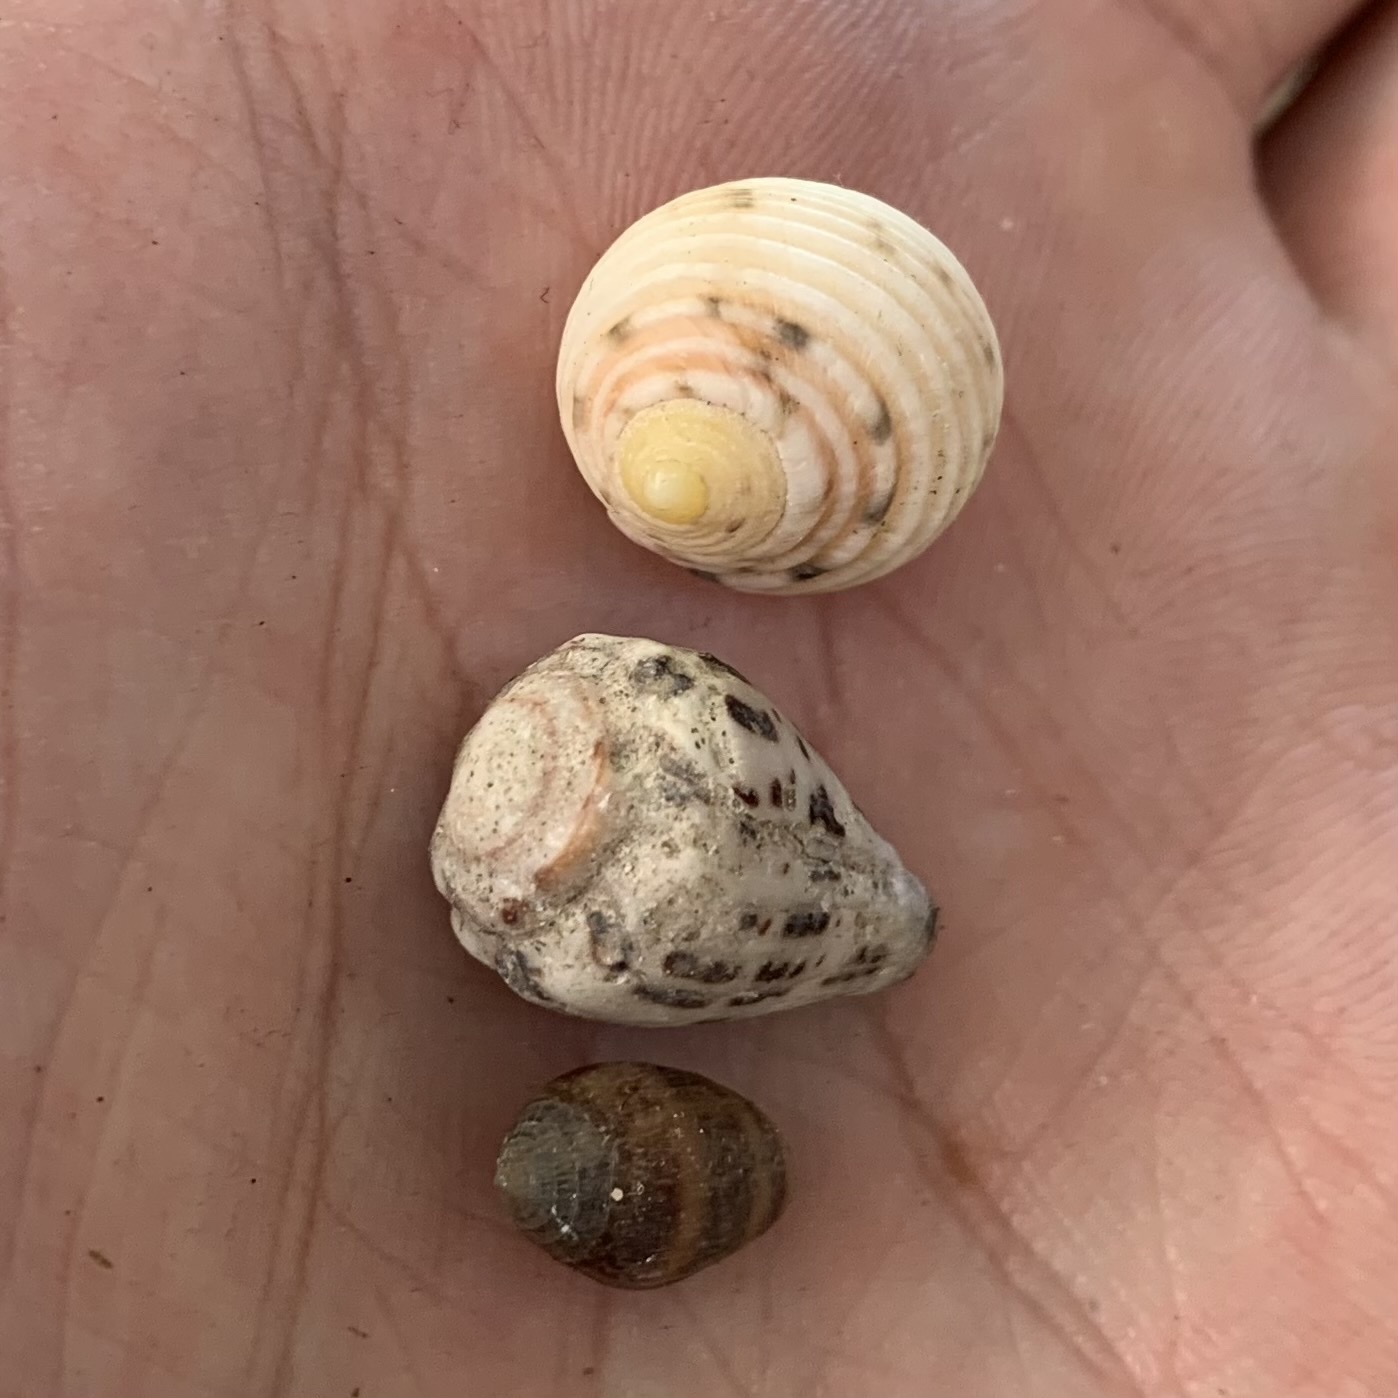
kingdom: Animalia
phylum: Mollusca
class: Gastropoda
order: Neogastropoda
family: Conidae
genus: Conus
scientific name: Conus ebraeus
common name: Hebrew cone
